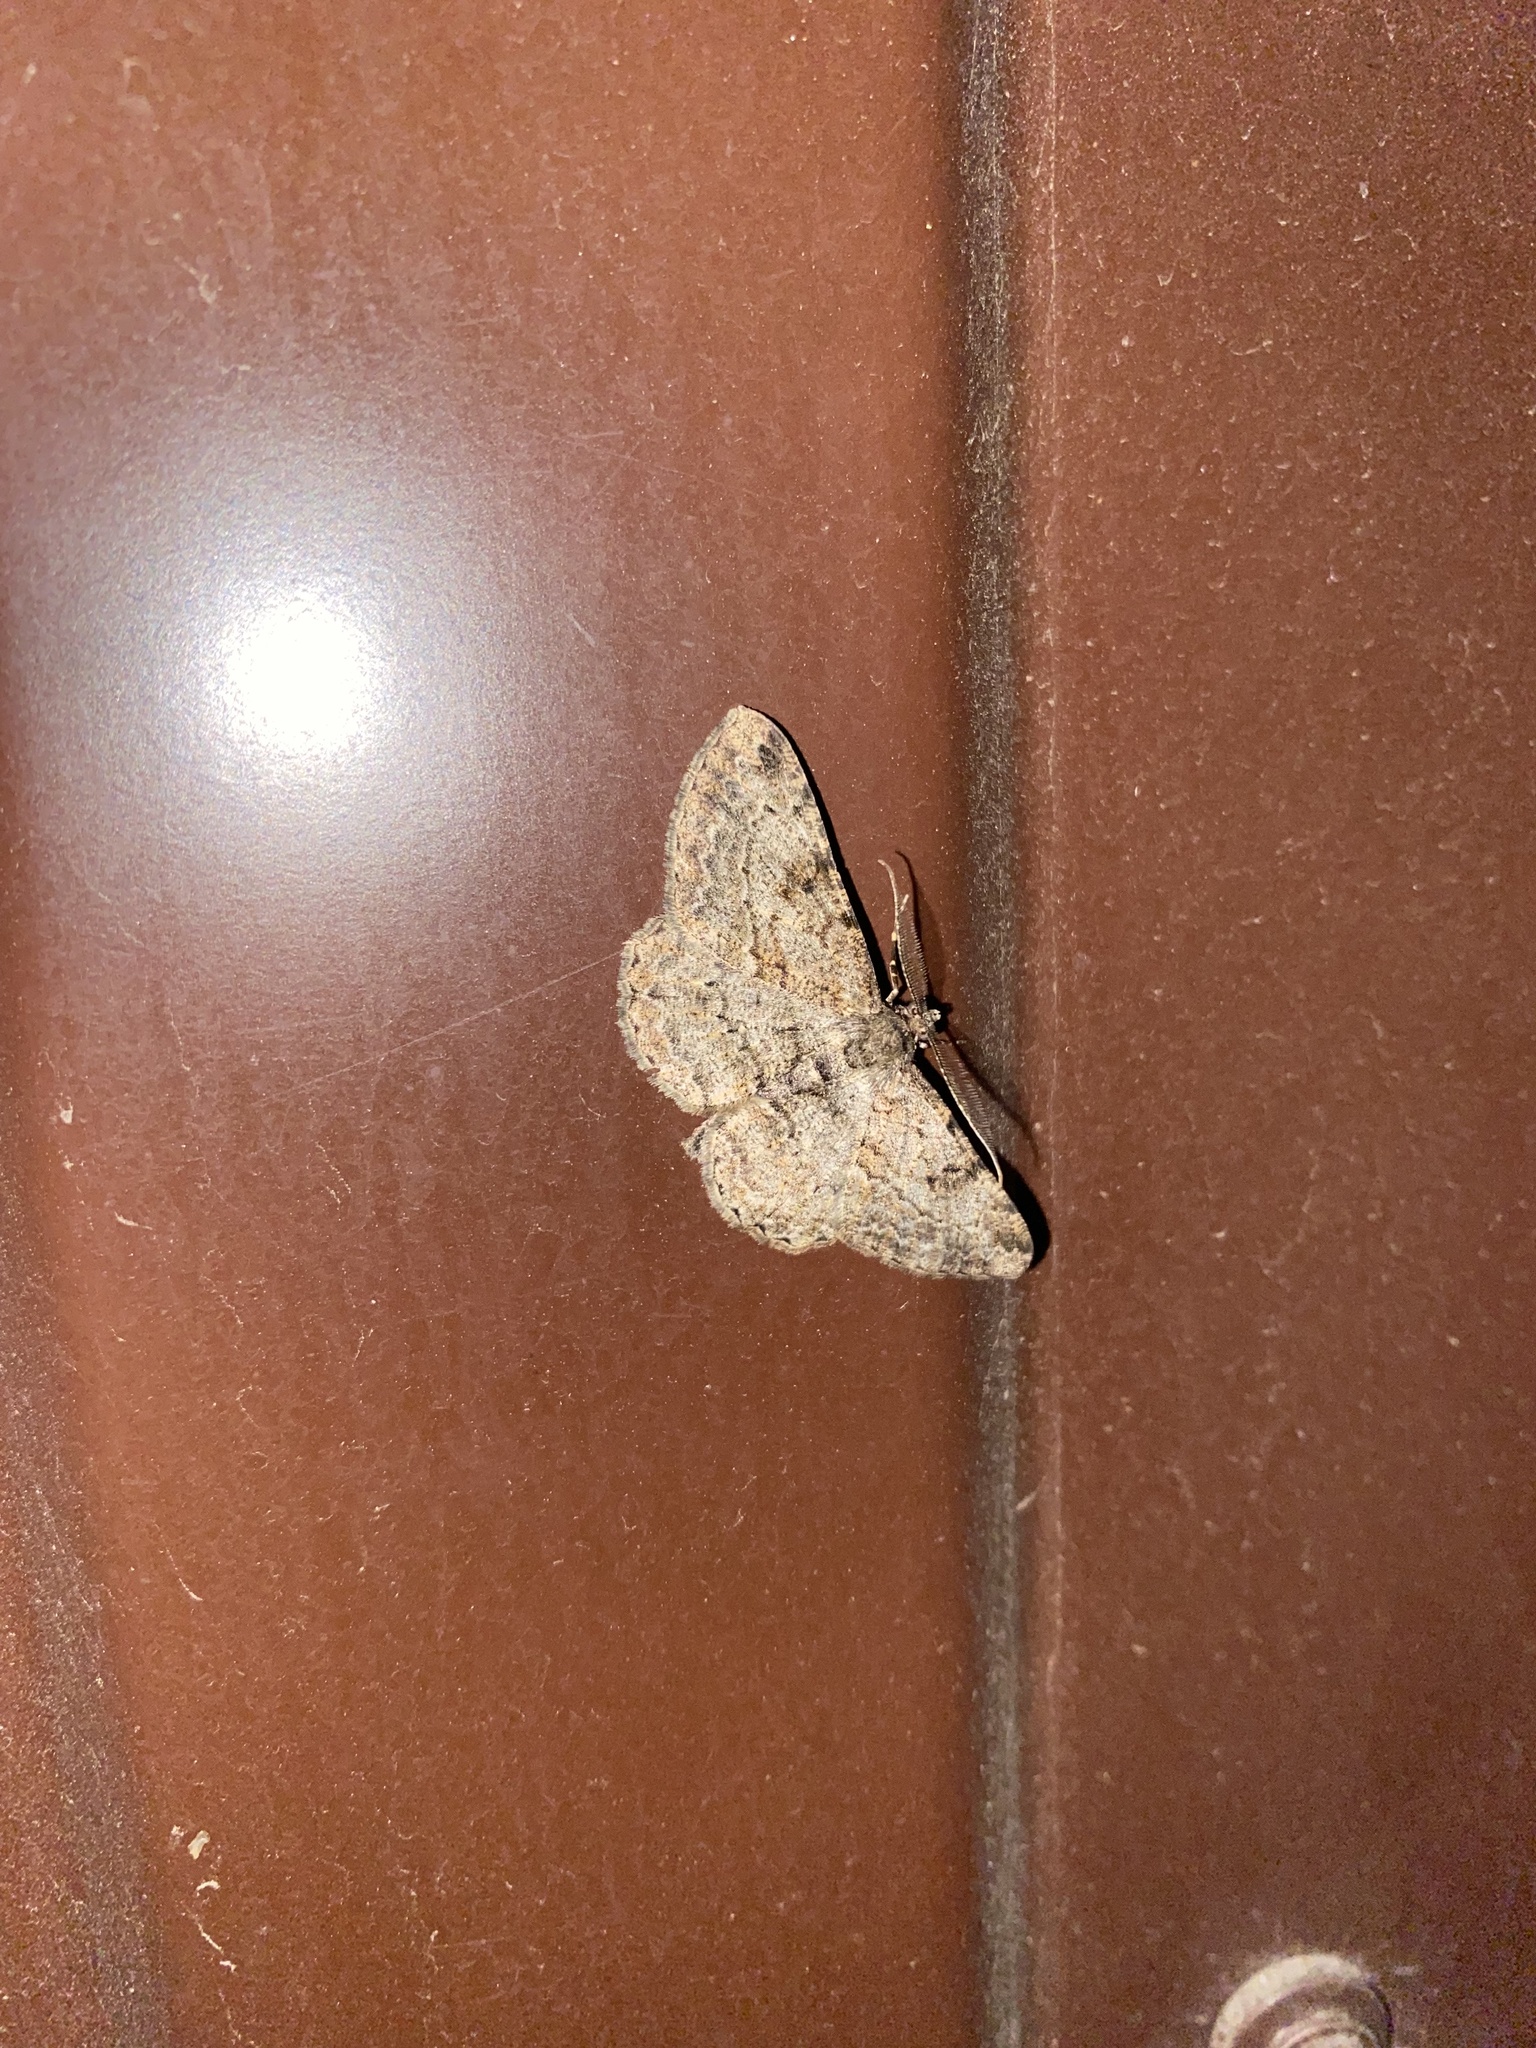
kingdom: Animalia
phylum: Arthropoda
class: Insecta
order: Lepidoptera
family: Geometridae
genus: Peribatodes
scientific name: Peribatodes rhomboidaria
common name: Willow beauty
